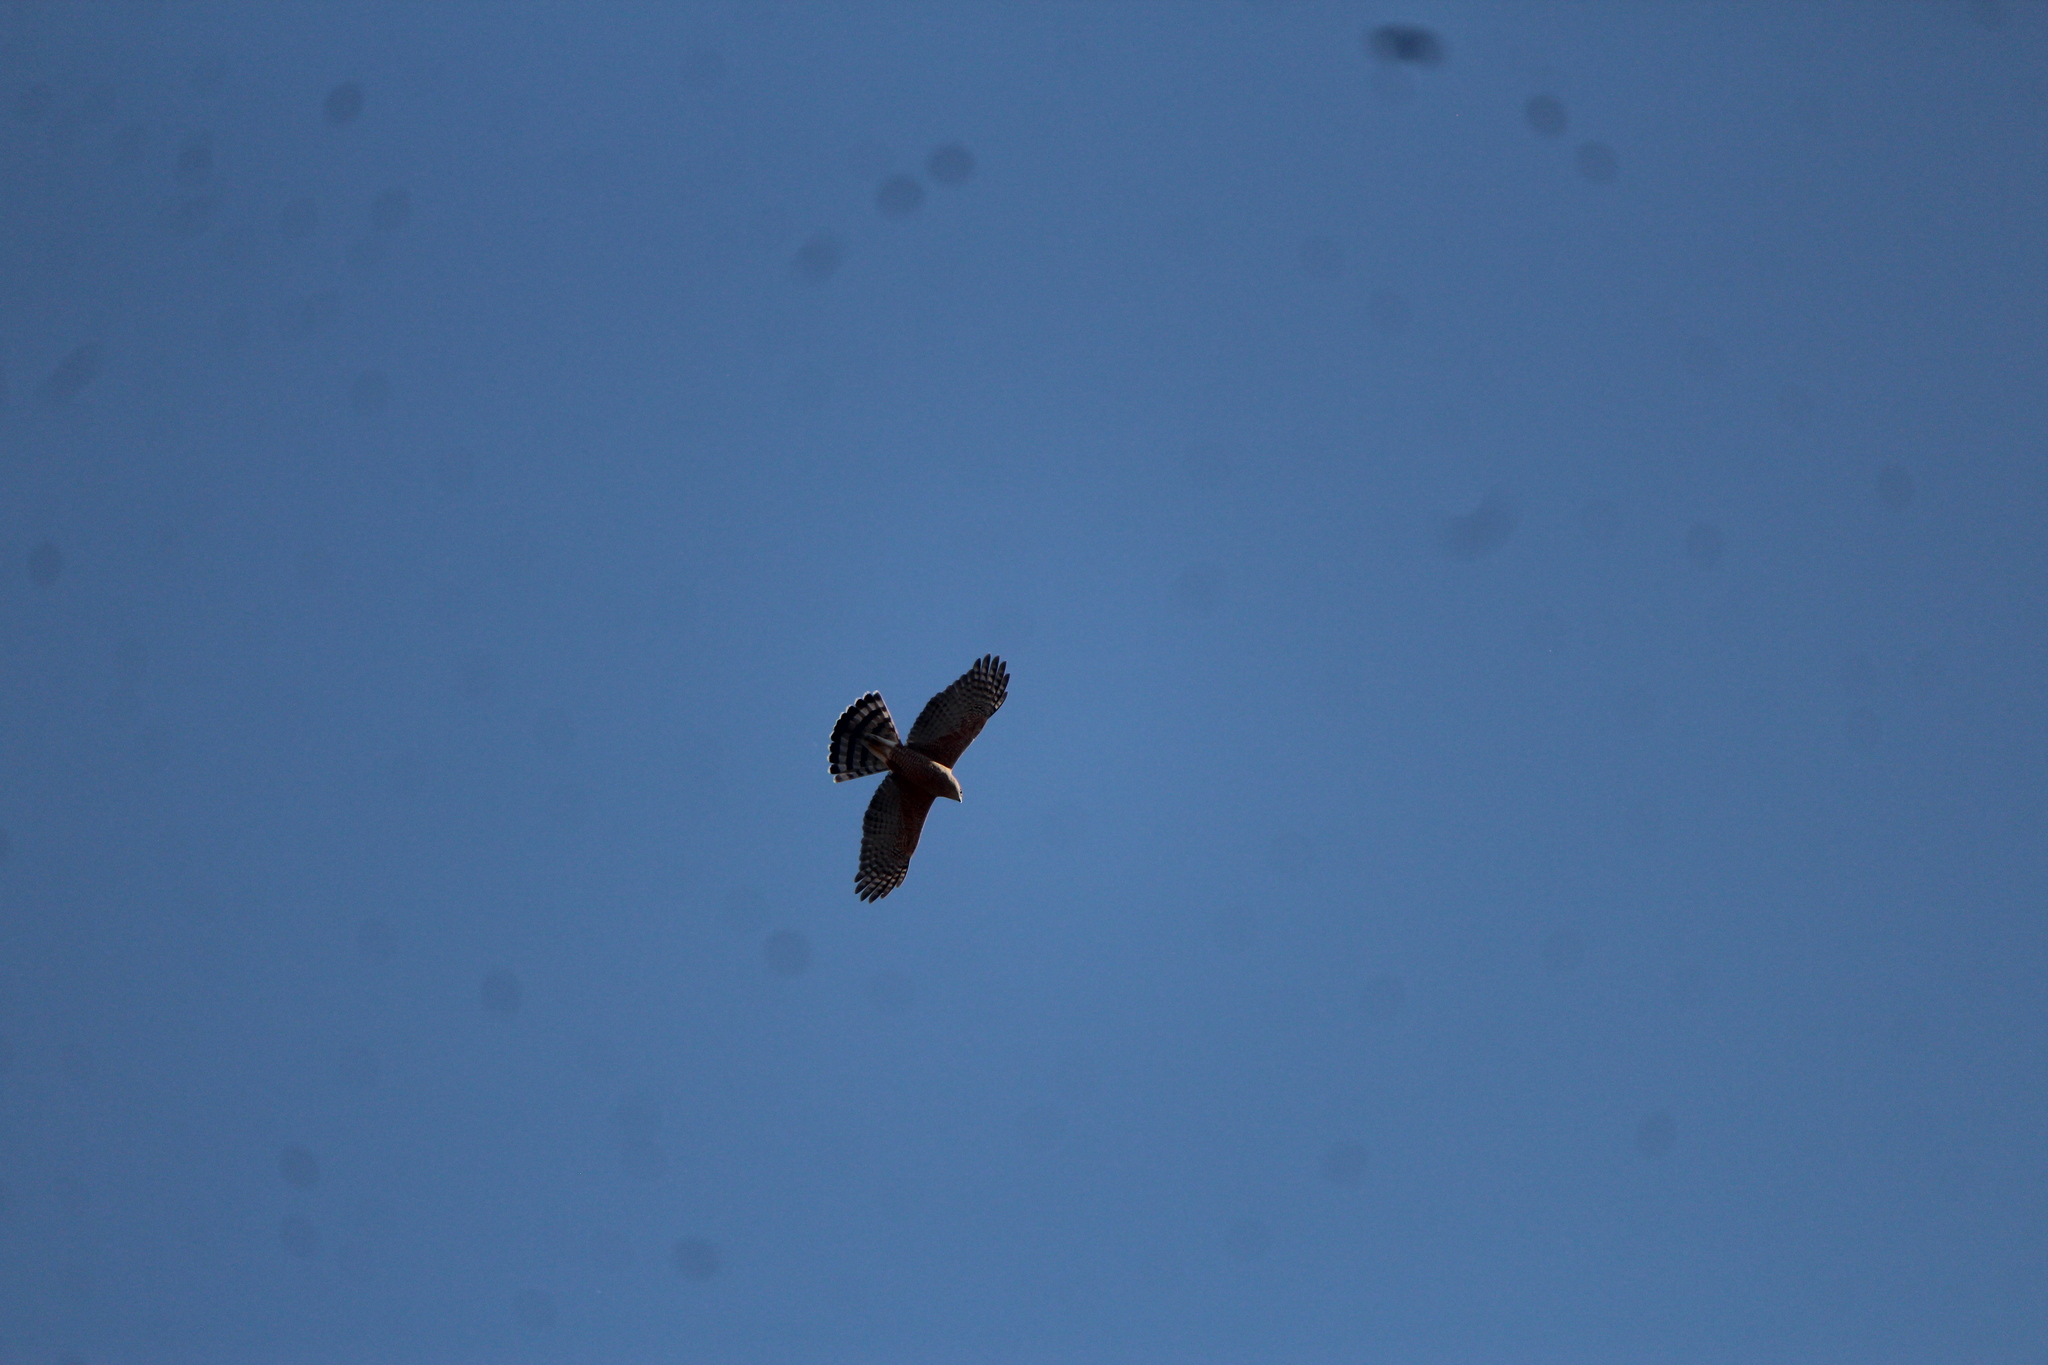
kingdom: Animalia
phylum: Chordata
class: Aves
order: Accipitriformes
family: Accipitridae
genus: Accipiter
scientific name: Accipiter cooperii
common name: Cooper's hawk
